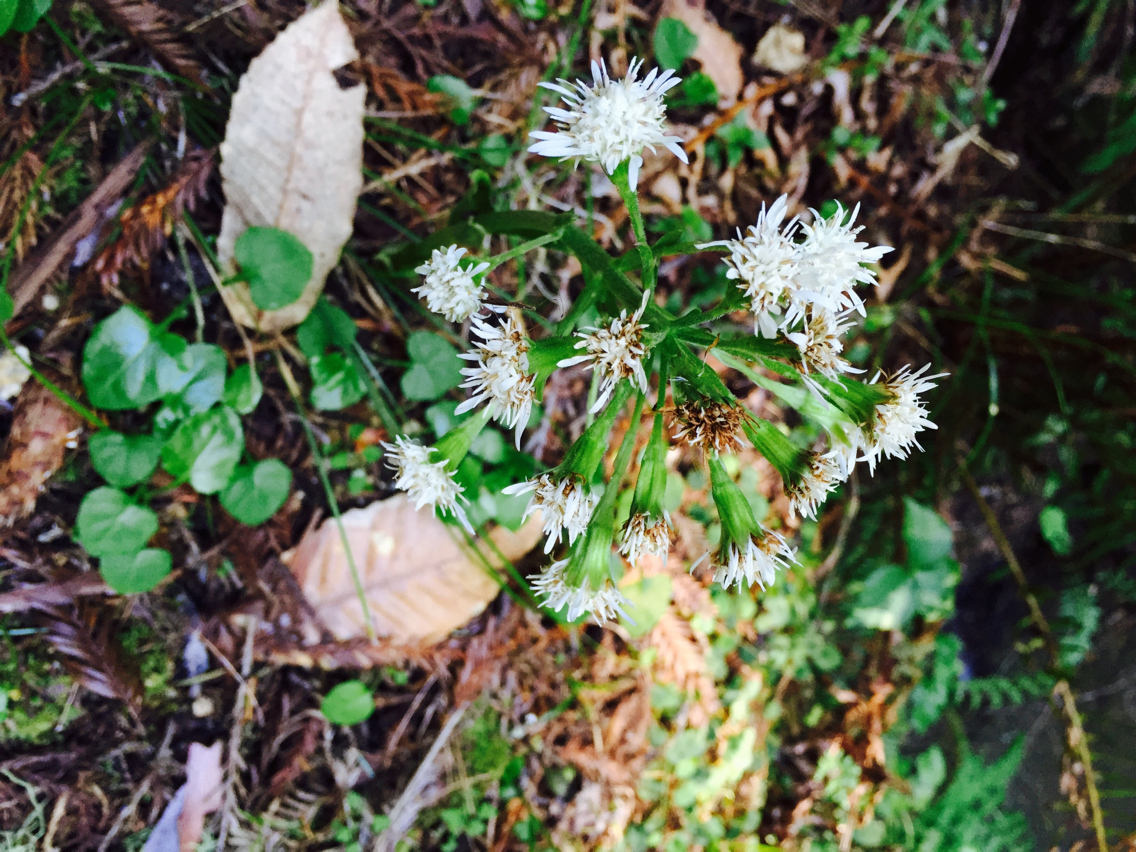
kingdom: Plantae
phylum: Tracheophyta
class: Magnoliopsida
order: Asterales
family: Asteraceae
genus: Petasites
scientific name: Petasites frigidus
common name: Arctic butterbur
